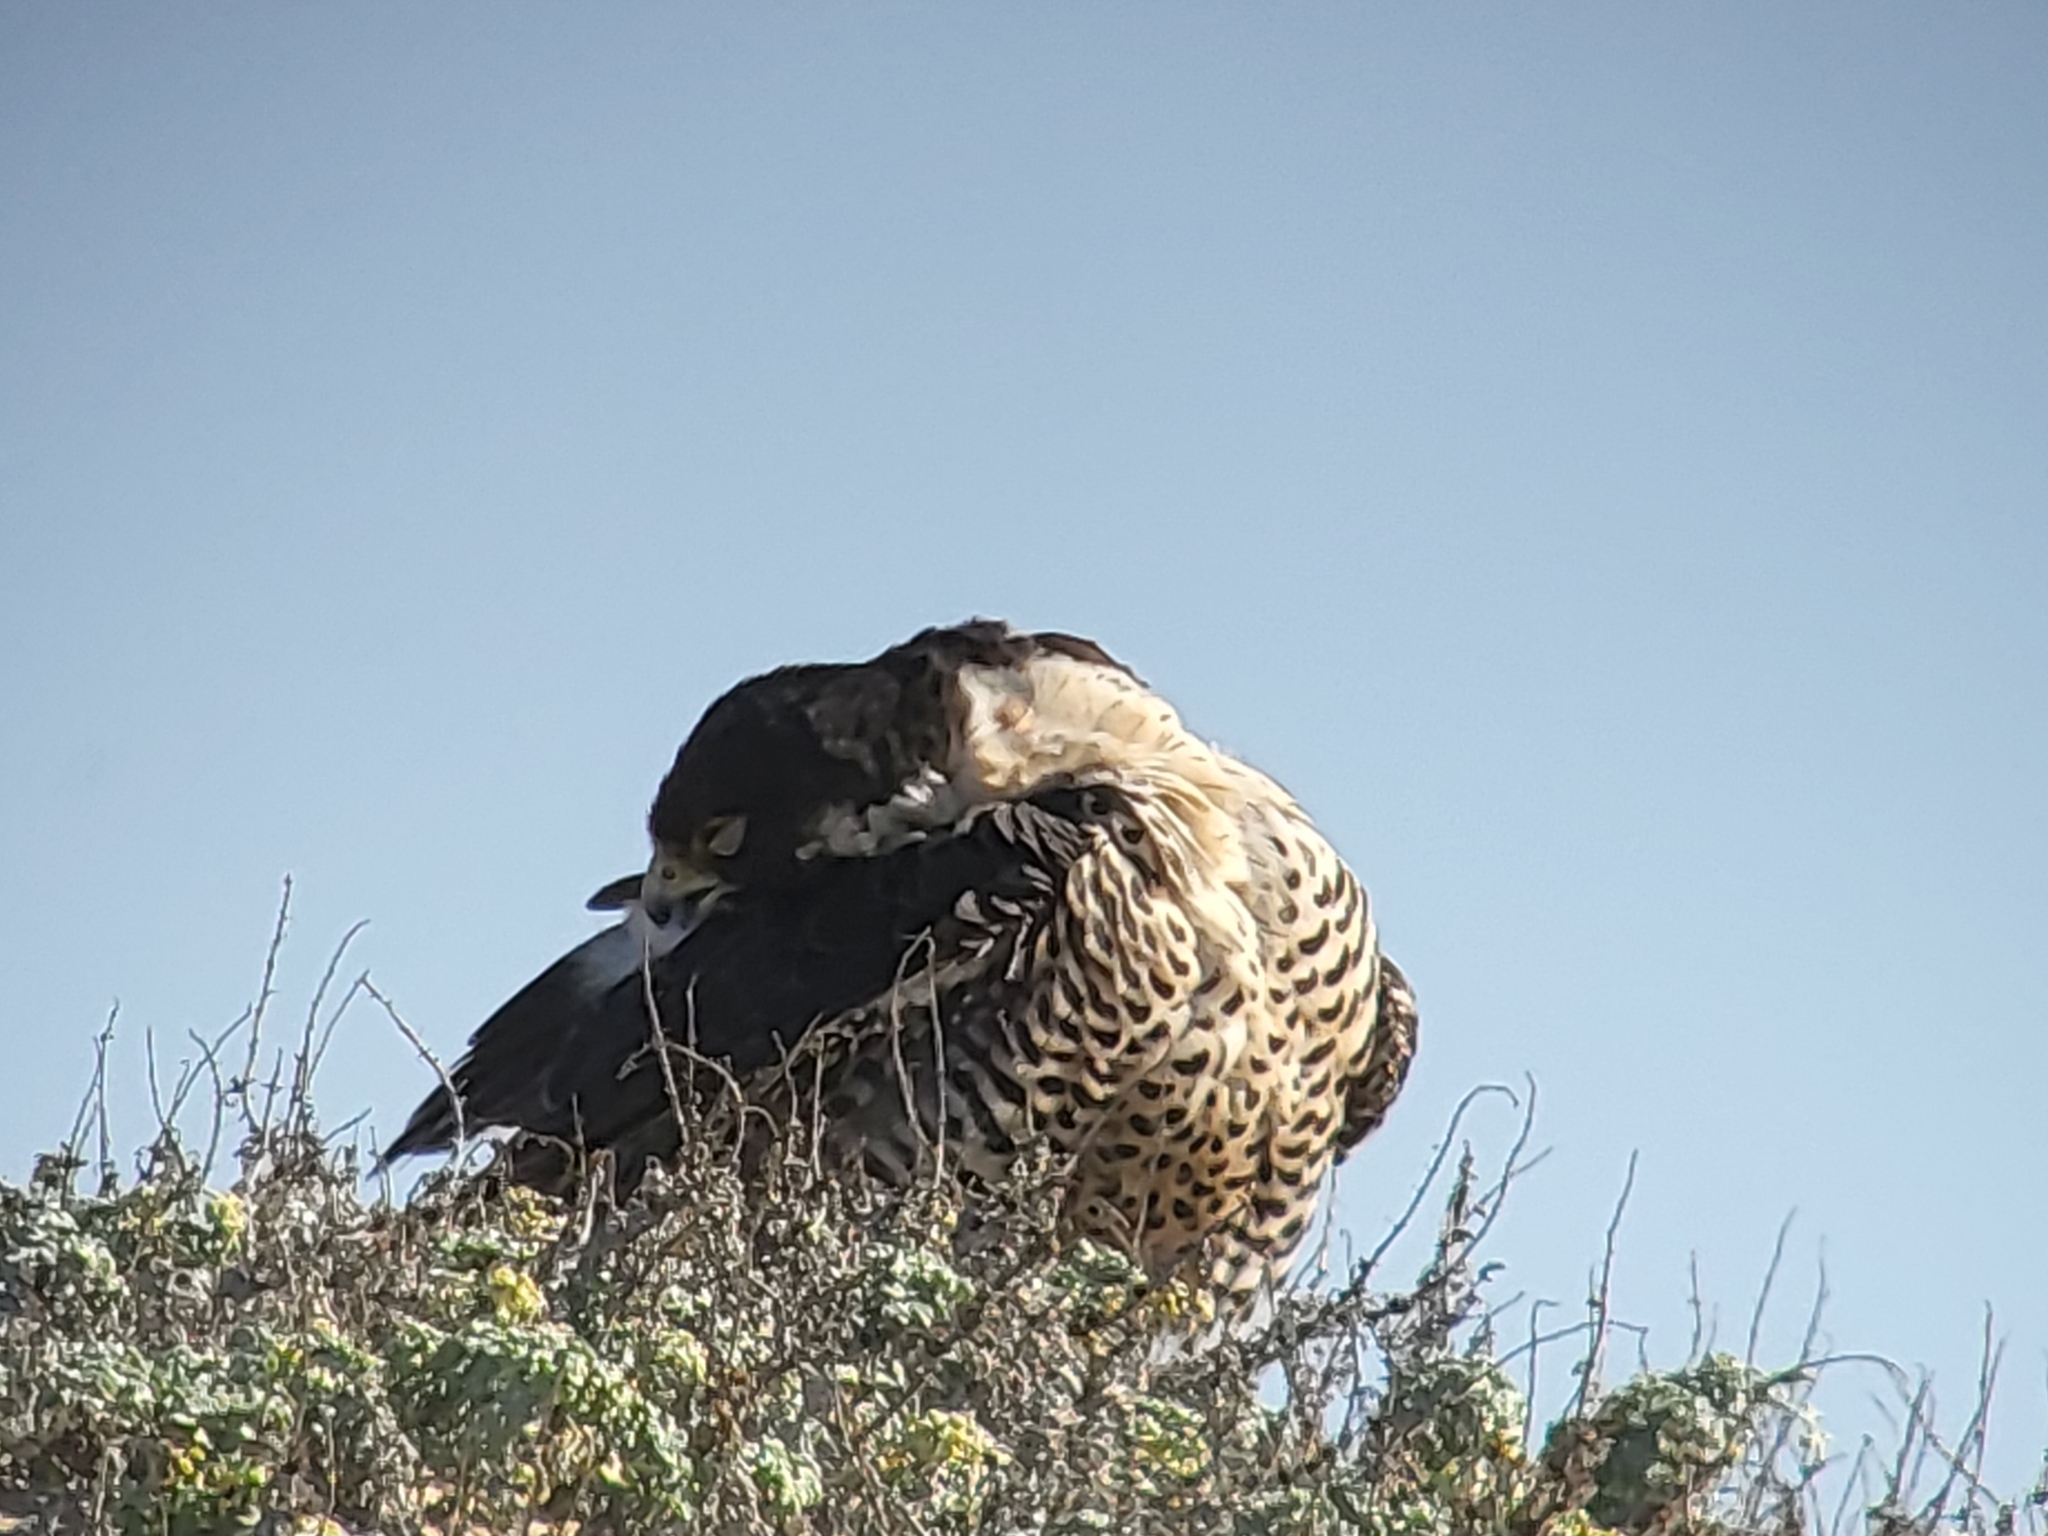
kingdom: Animalia
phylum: Chordata
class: Aves
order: Falconiformes
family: Falconidae
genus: Falco
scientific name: Falco peregrinus
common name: Peregrine falcon
